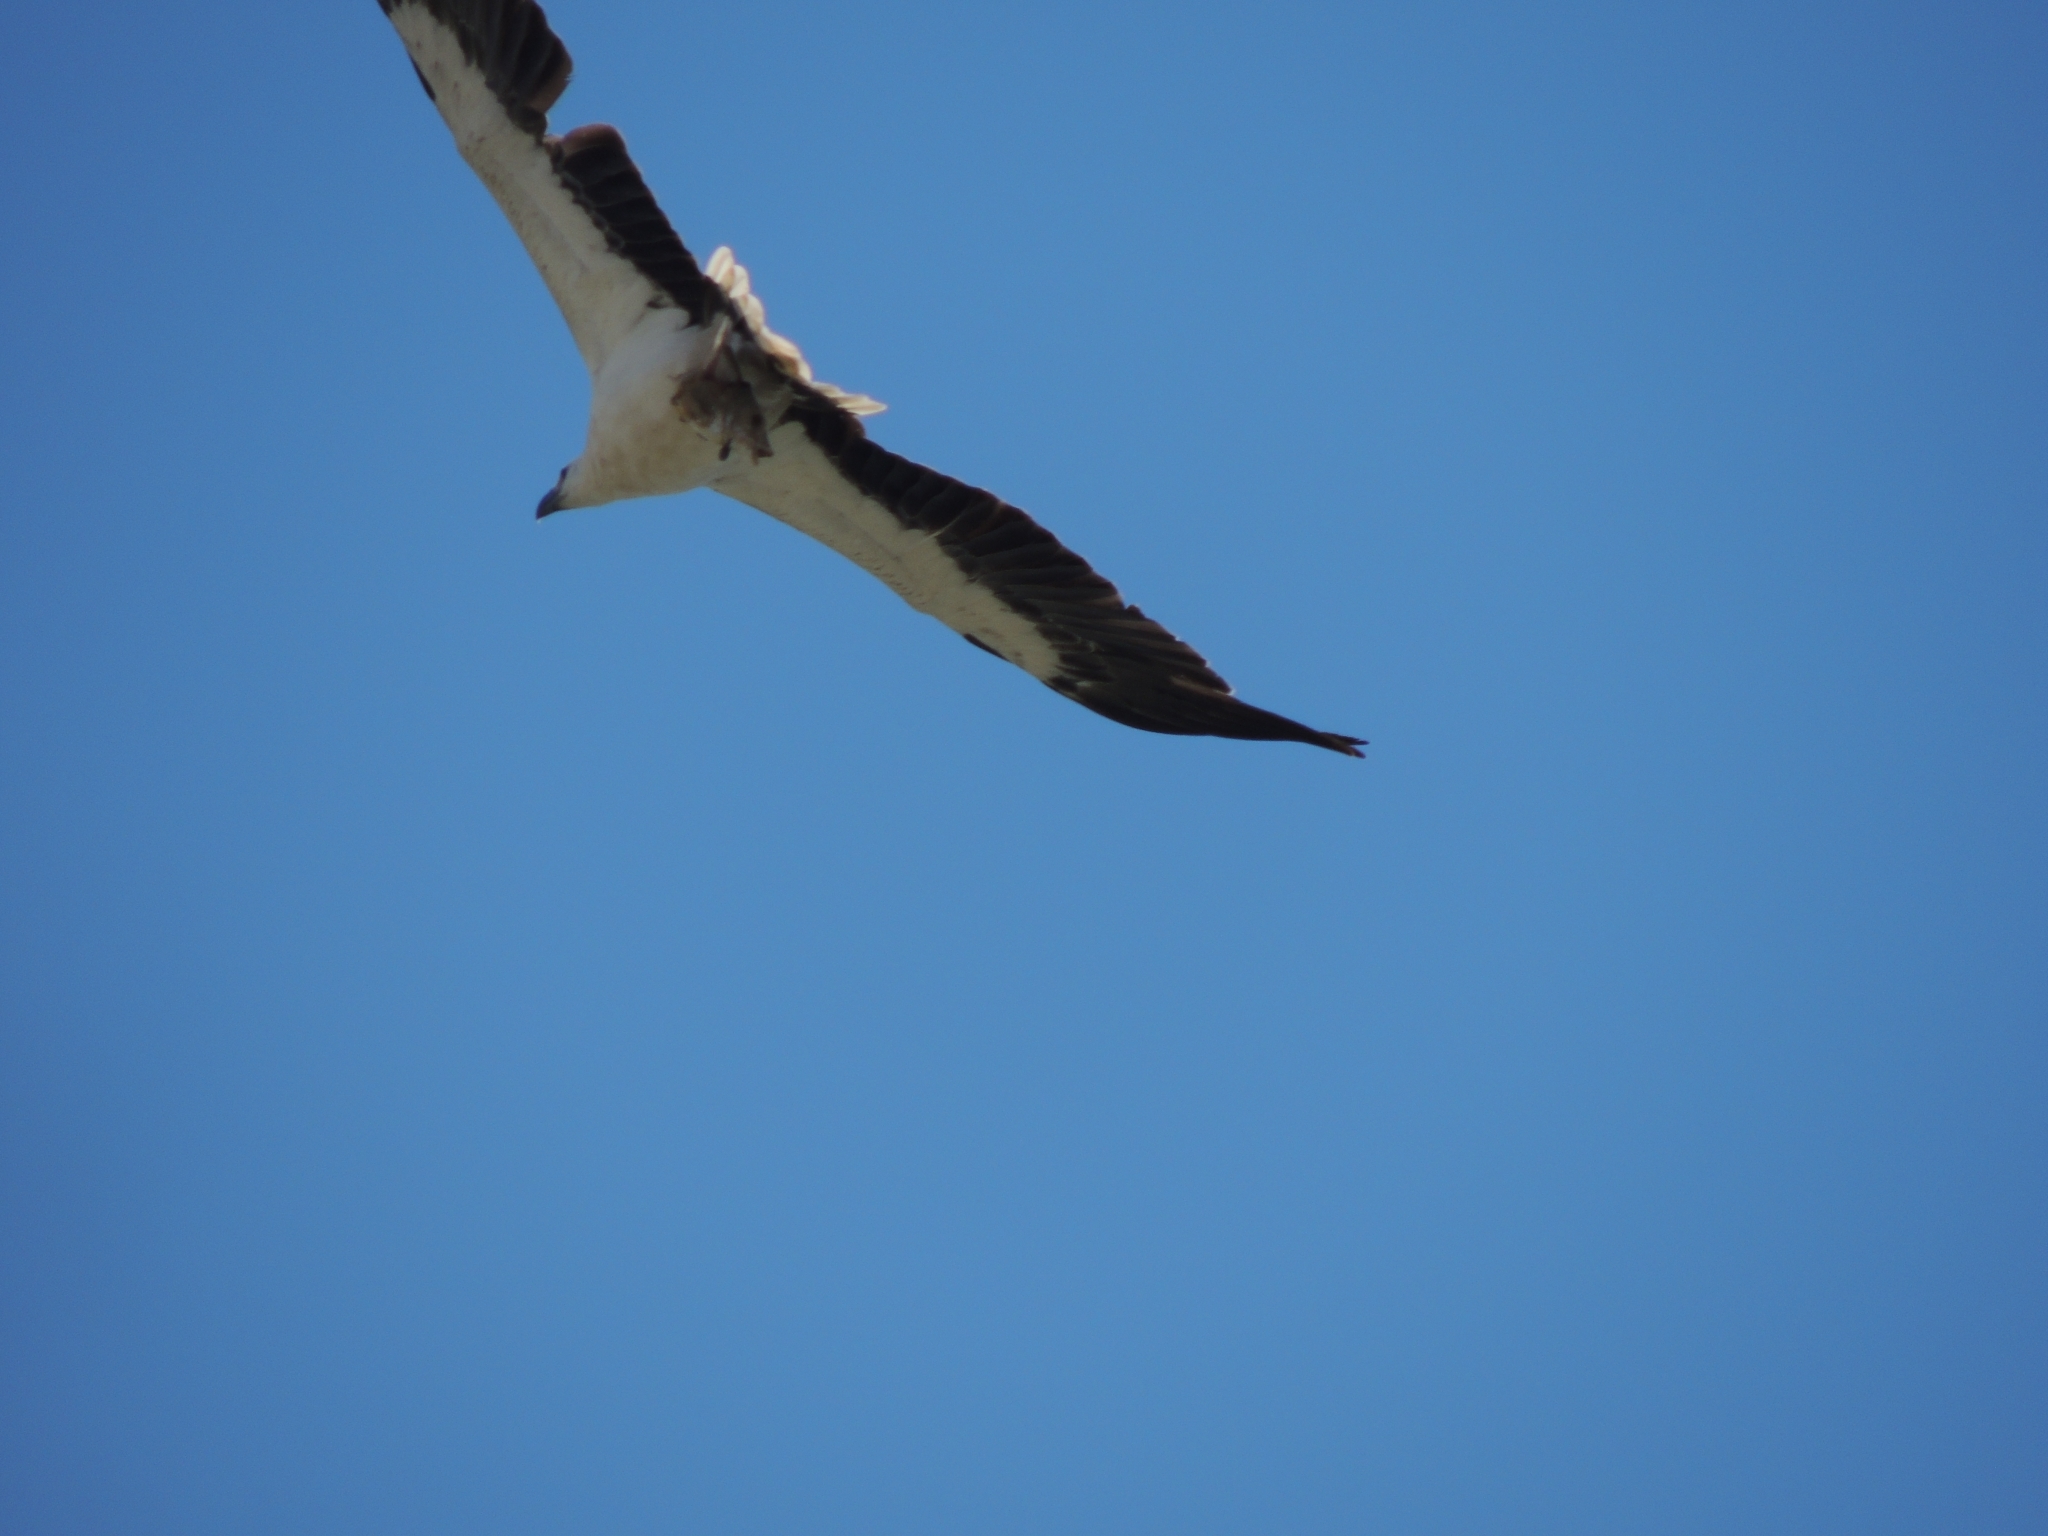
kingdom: Animalia
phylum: Chordata
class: Aves
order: Accipitriformes
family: Accipitridae
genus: Haliaeetus
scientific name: Haliaeetus leucogaster
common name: White-bellied sea eagle
